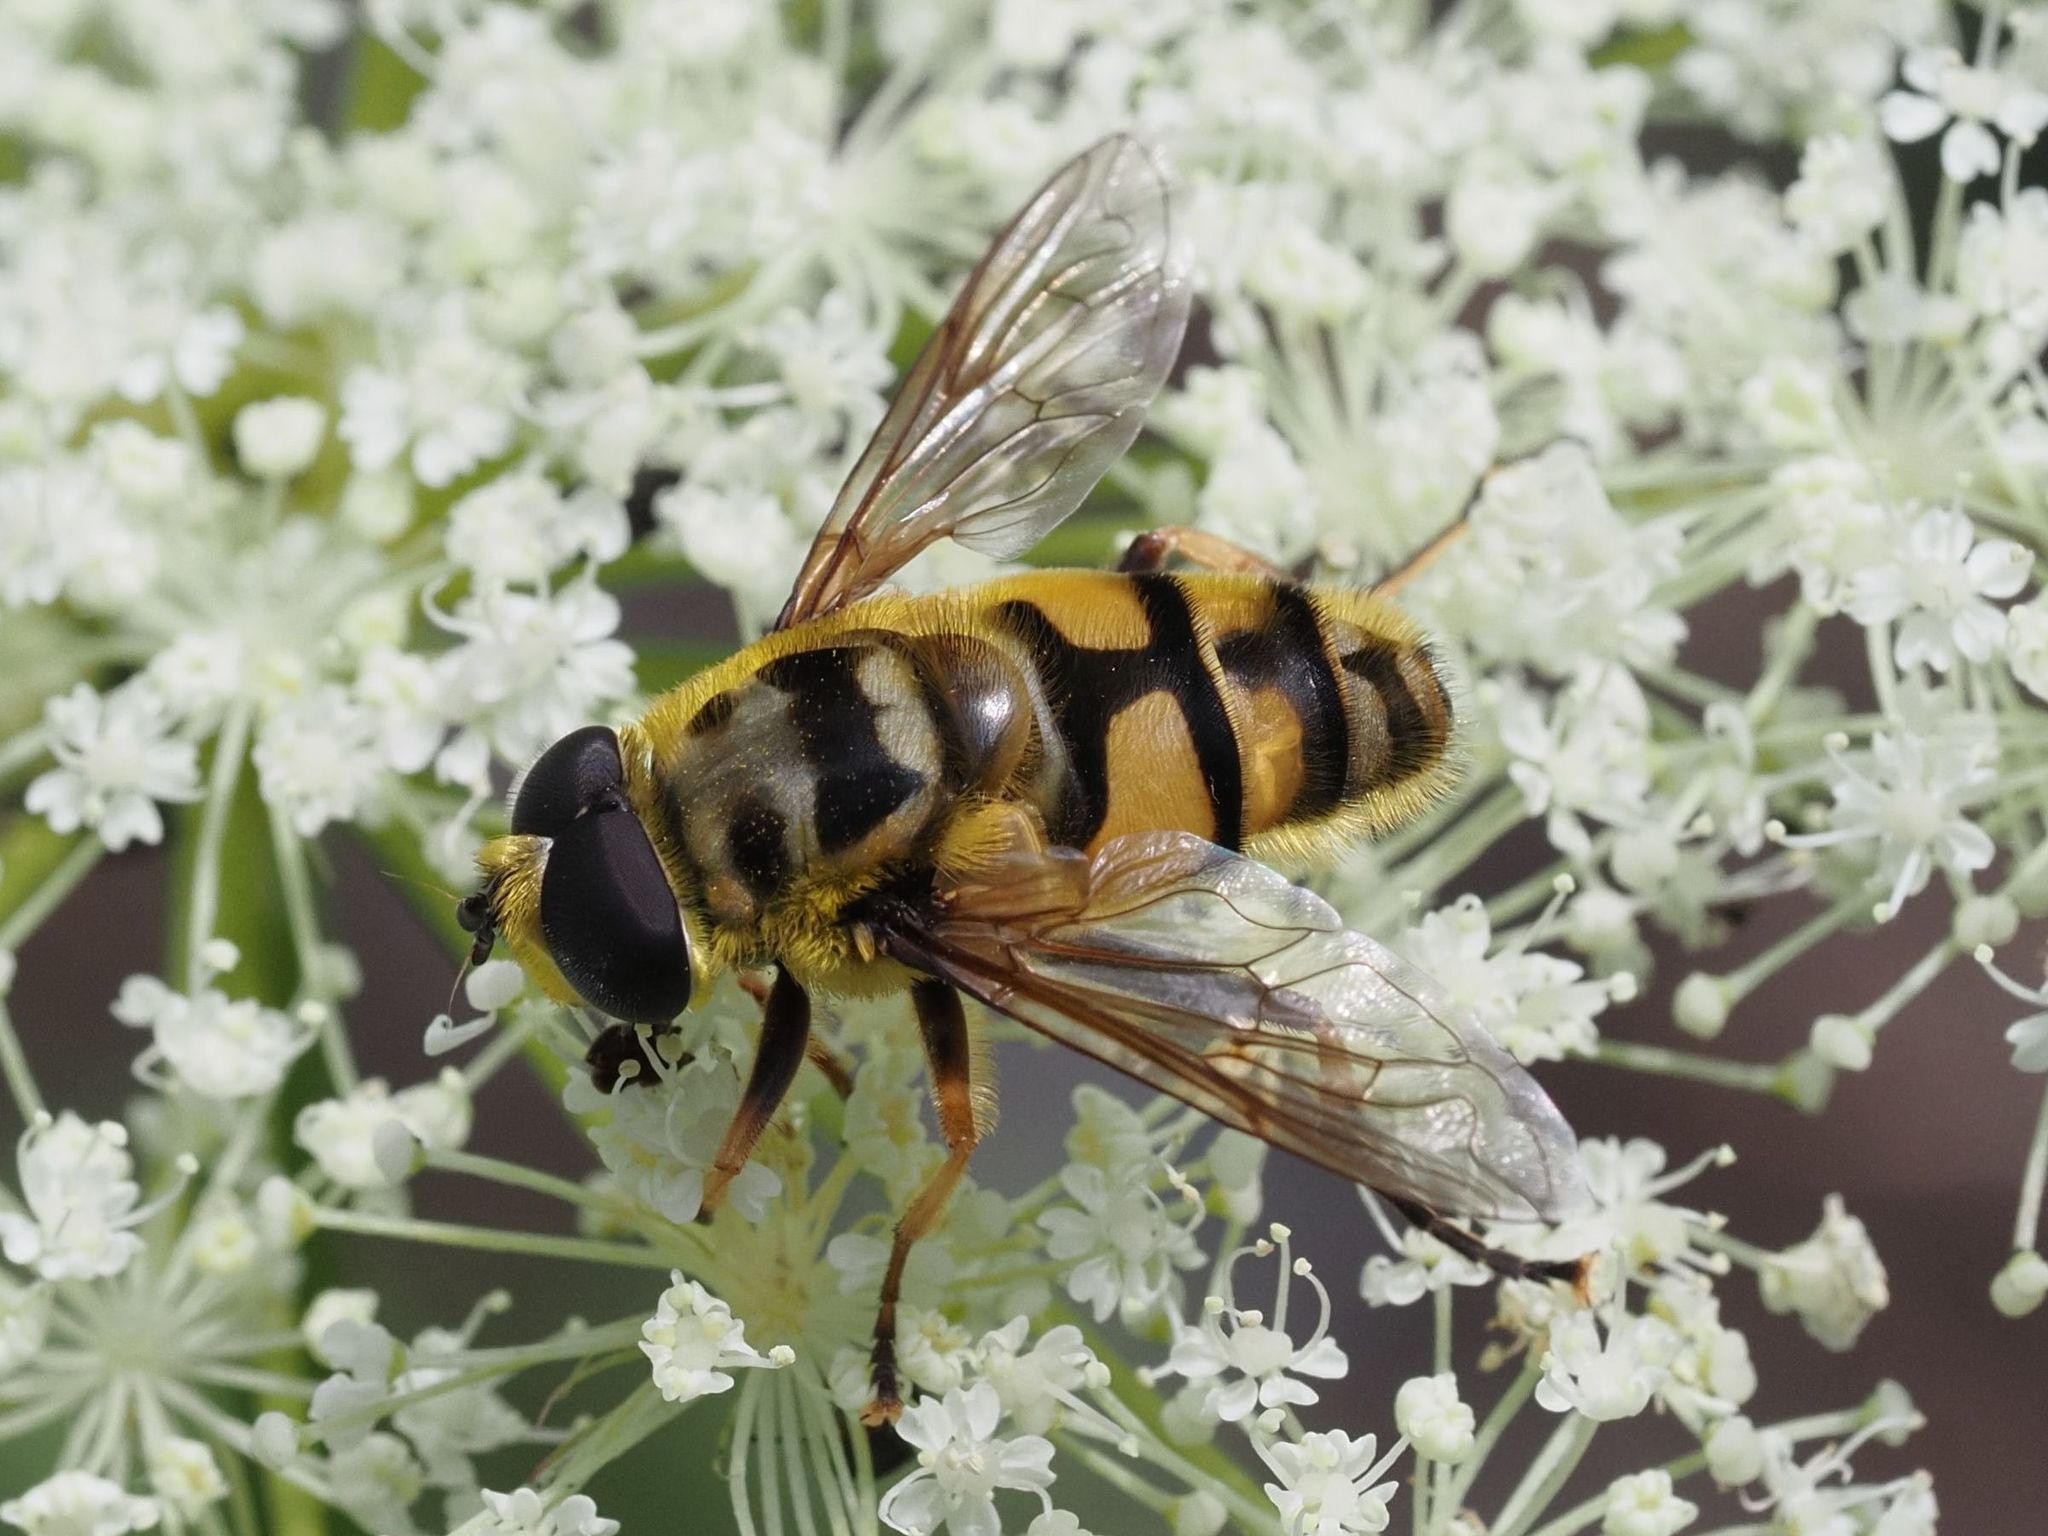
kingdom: Animalia
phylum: Arthropoda
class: Insecta
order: Diptera
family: Syrphidae
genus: Myathropa
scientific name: Myathropa florea
